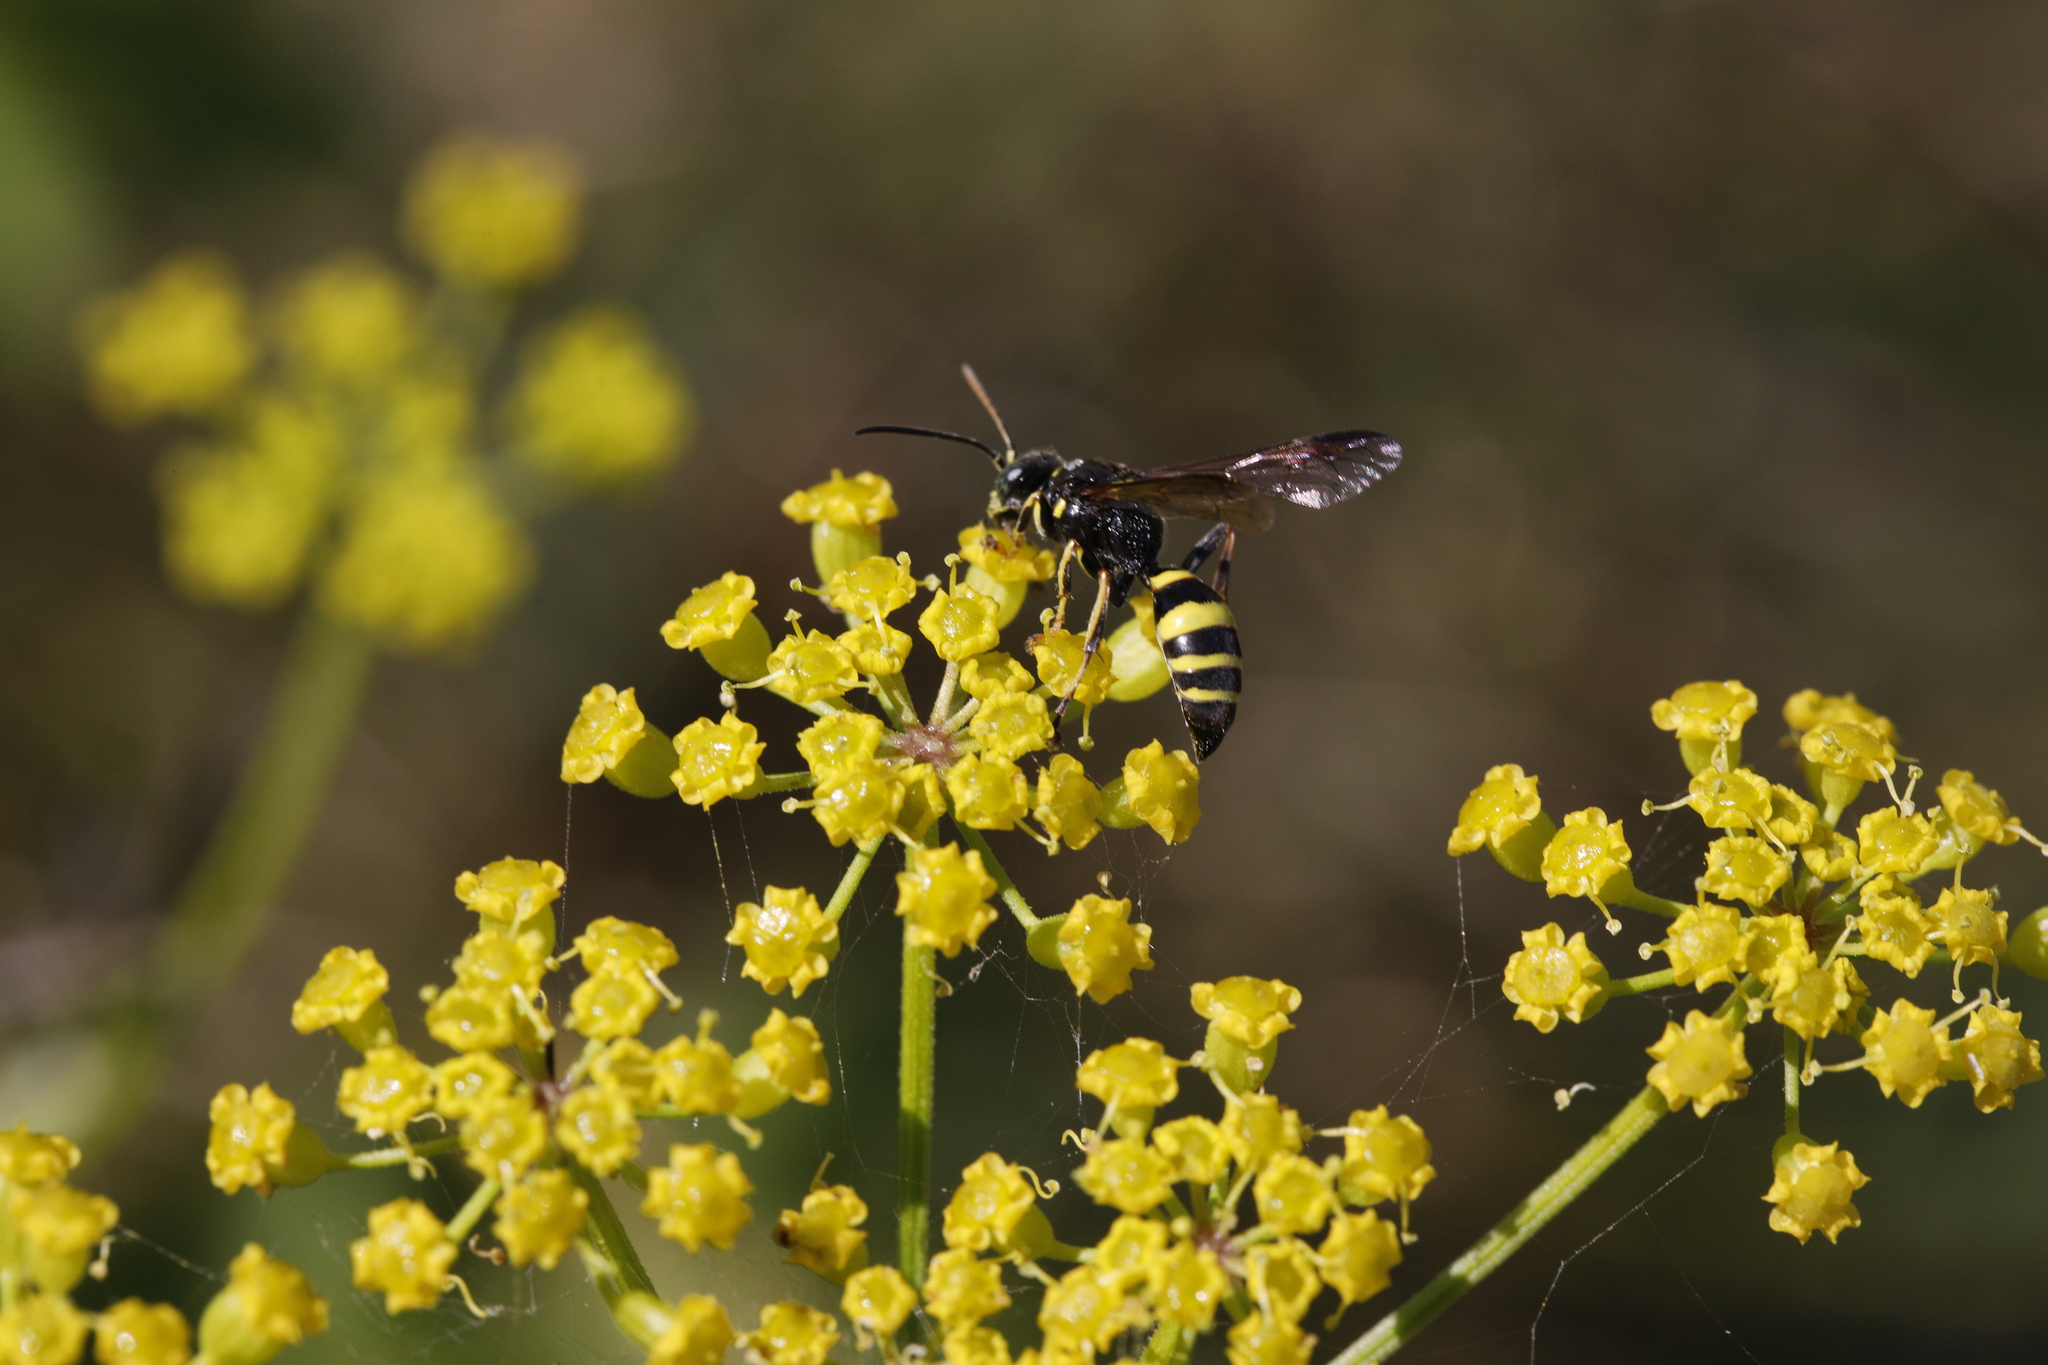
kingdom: Animalia
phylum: Arthropoda
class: Insecta
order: Hymenoptera
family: Crabronidae
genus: Gorytes
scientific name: Gorytes laticinctus
